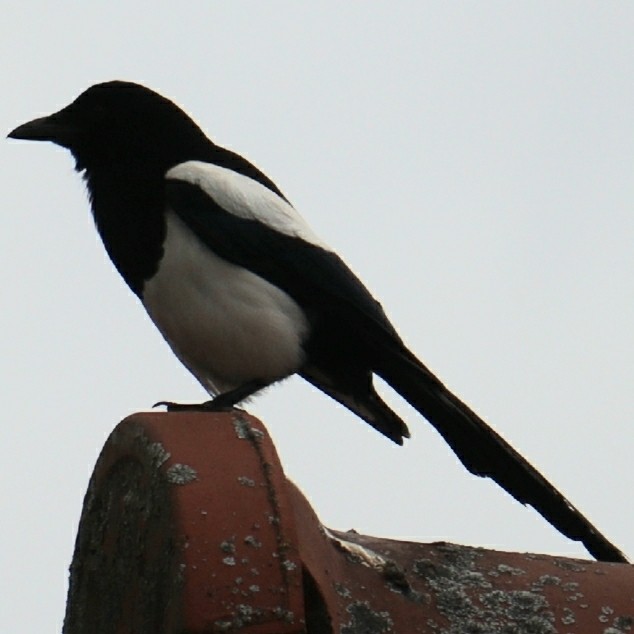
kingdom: Animalia
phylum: Chordata
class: Aves
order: Passeriformes
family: Corvidae
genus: Pica
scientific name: Pica pica
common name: Eurasian magpie
